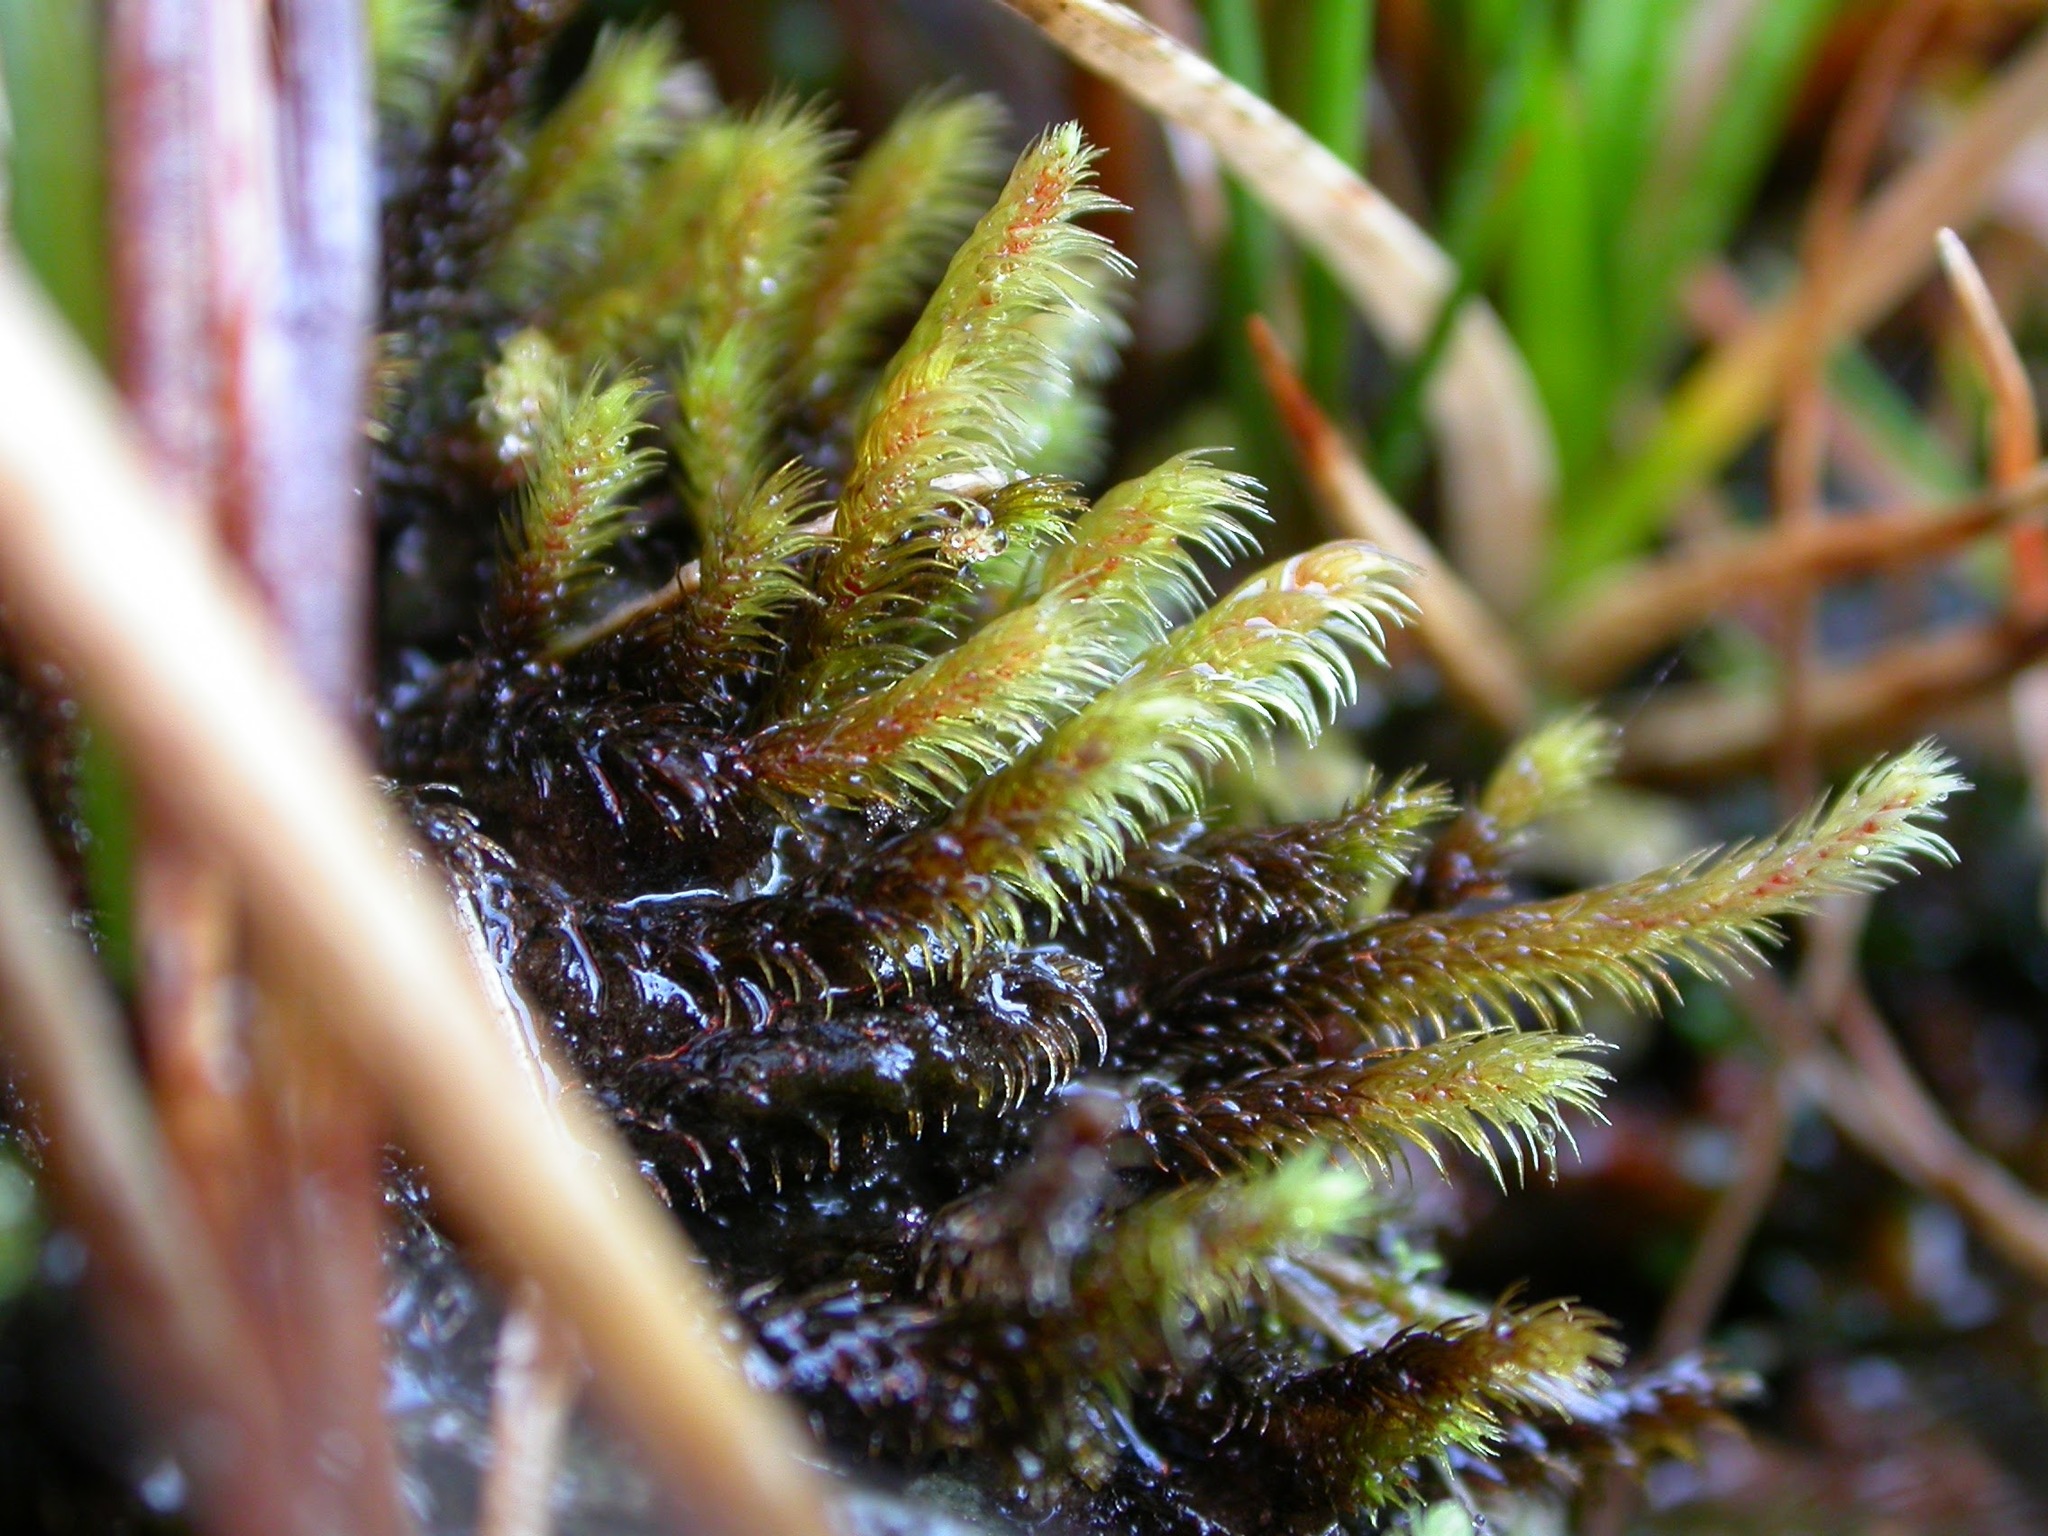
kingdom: Plantae
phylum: Bryophyta
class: Bryopsida
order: Bartramiales
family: Bartramiaceae
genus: Philonotis
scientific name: Philonotis calcarea
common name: Thick-nerved apple-moss
